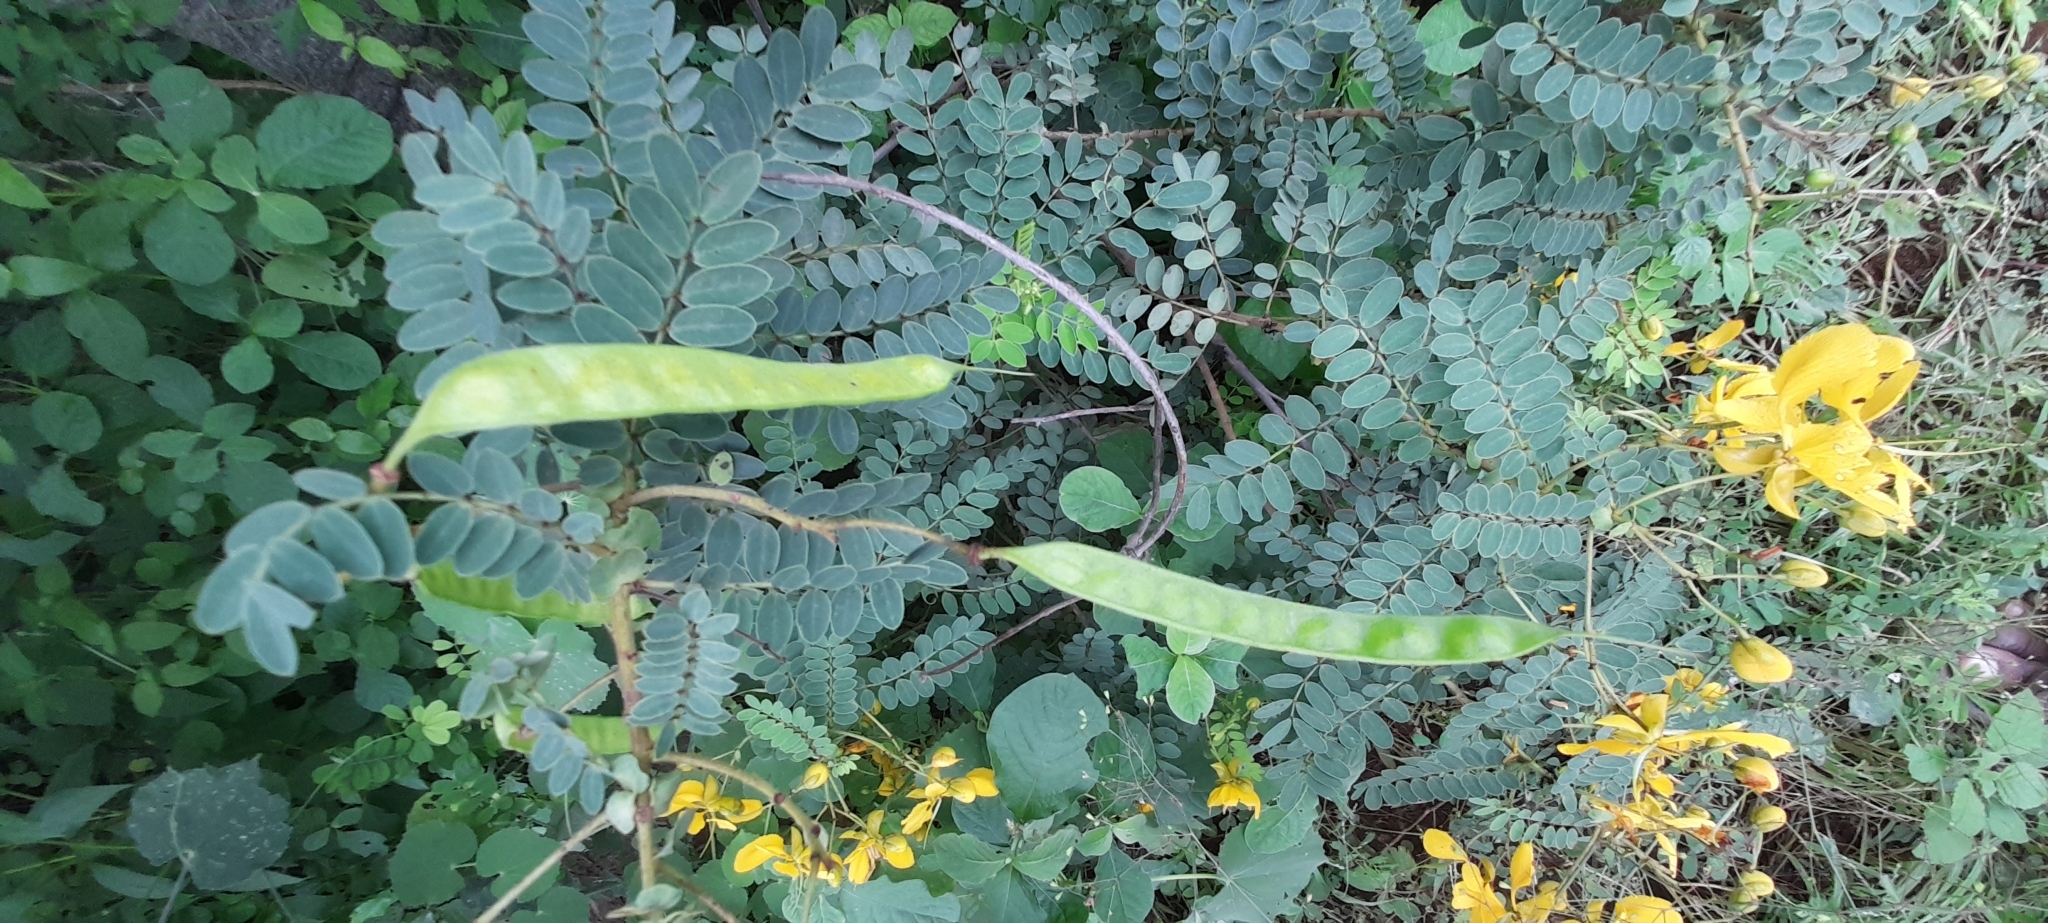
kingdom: Plantae
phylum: Tracheophyta
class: Magnoliopsida
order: Fabales
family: Fabaceae
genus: Senna
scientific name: Senna auriculata
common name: Tanner's cassia
